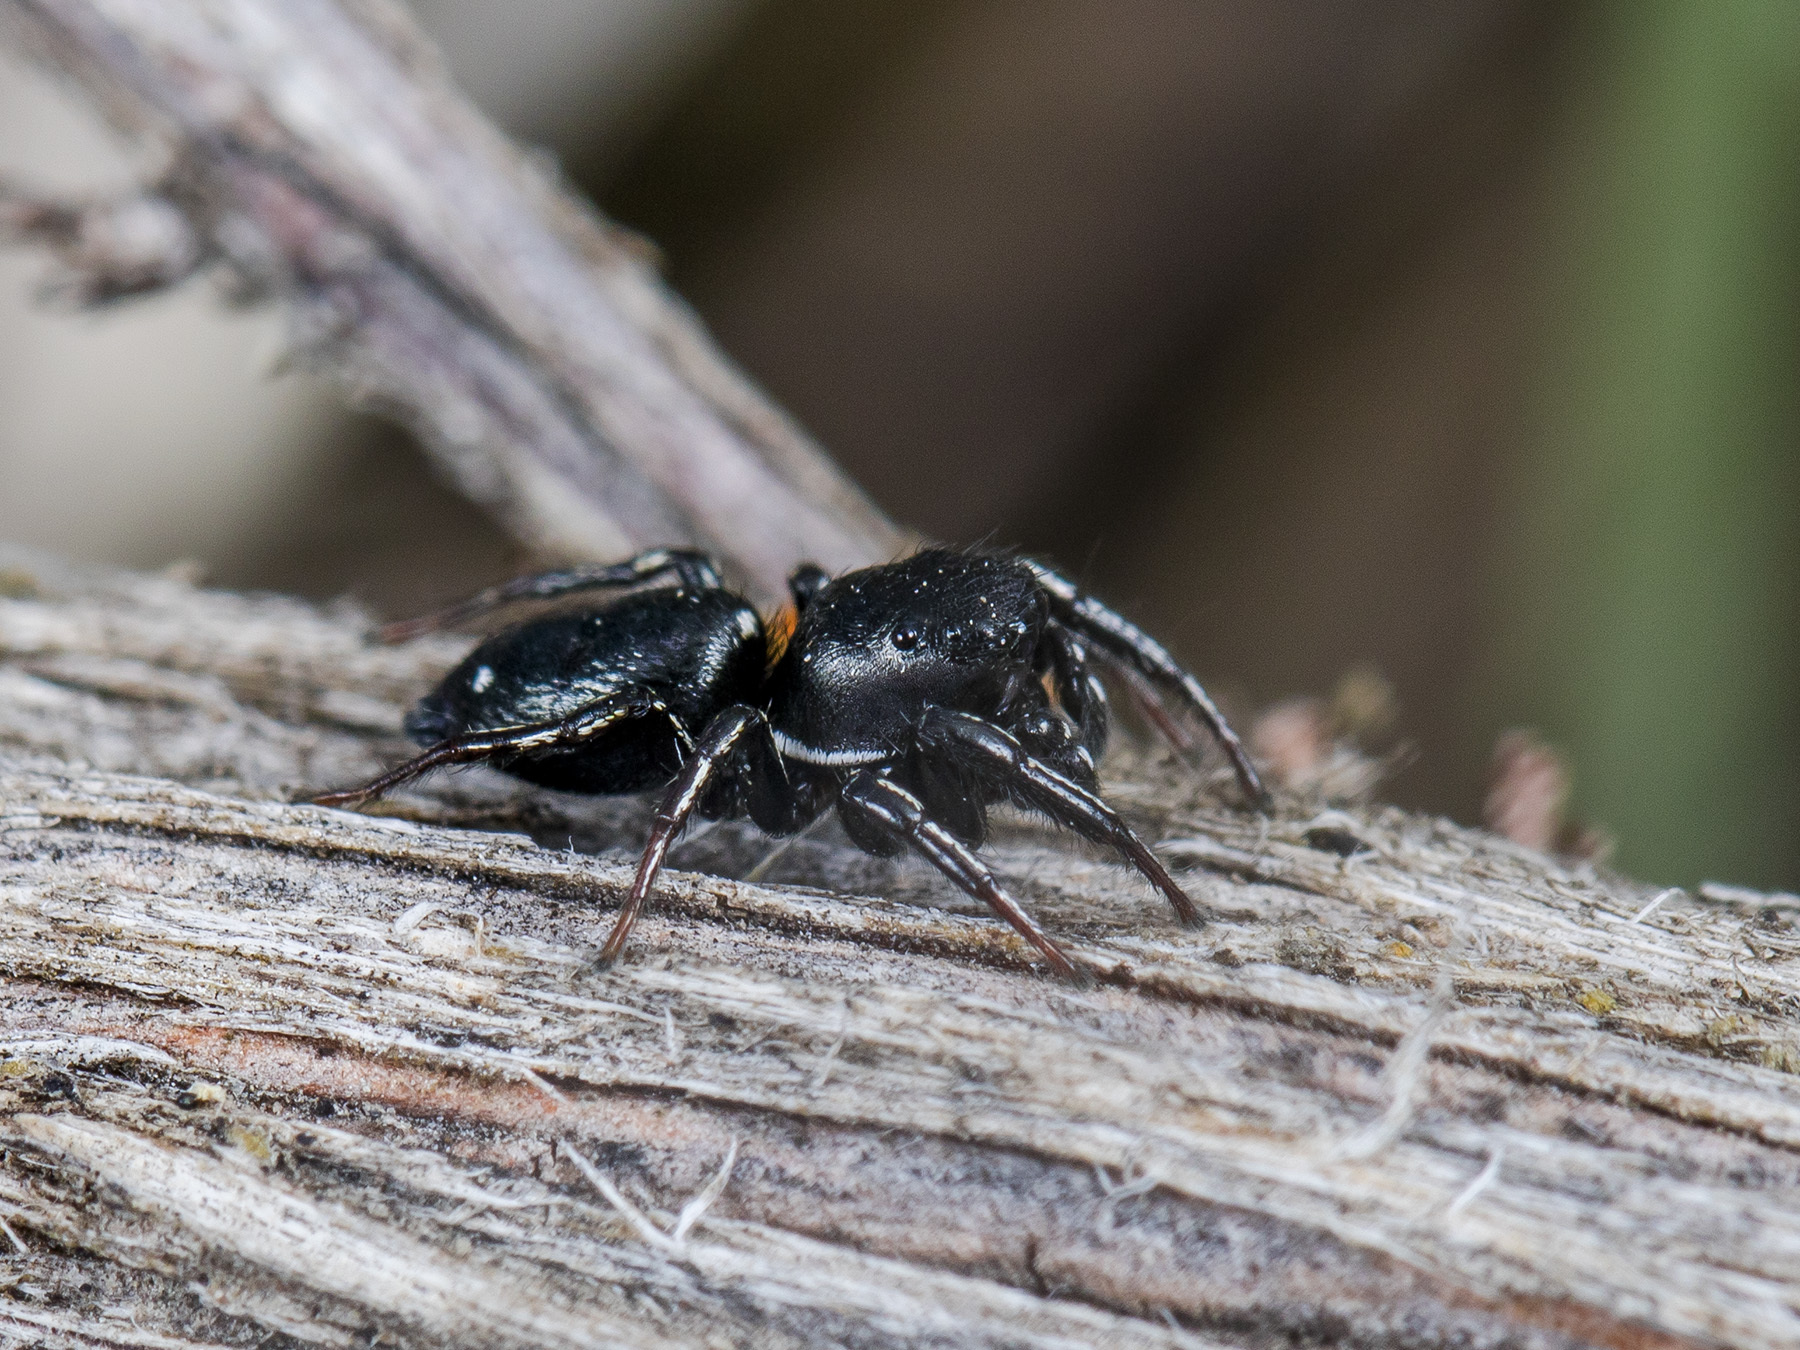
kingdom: Animalia
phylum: Arthropoda
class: Arachnida
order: Araneae
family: Salticidae
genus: Heliophanus
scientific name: Heliophanus chovdensis
